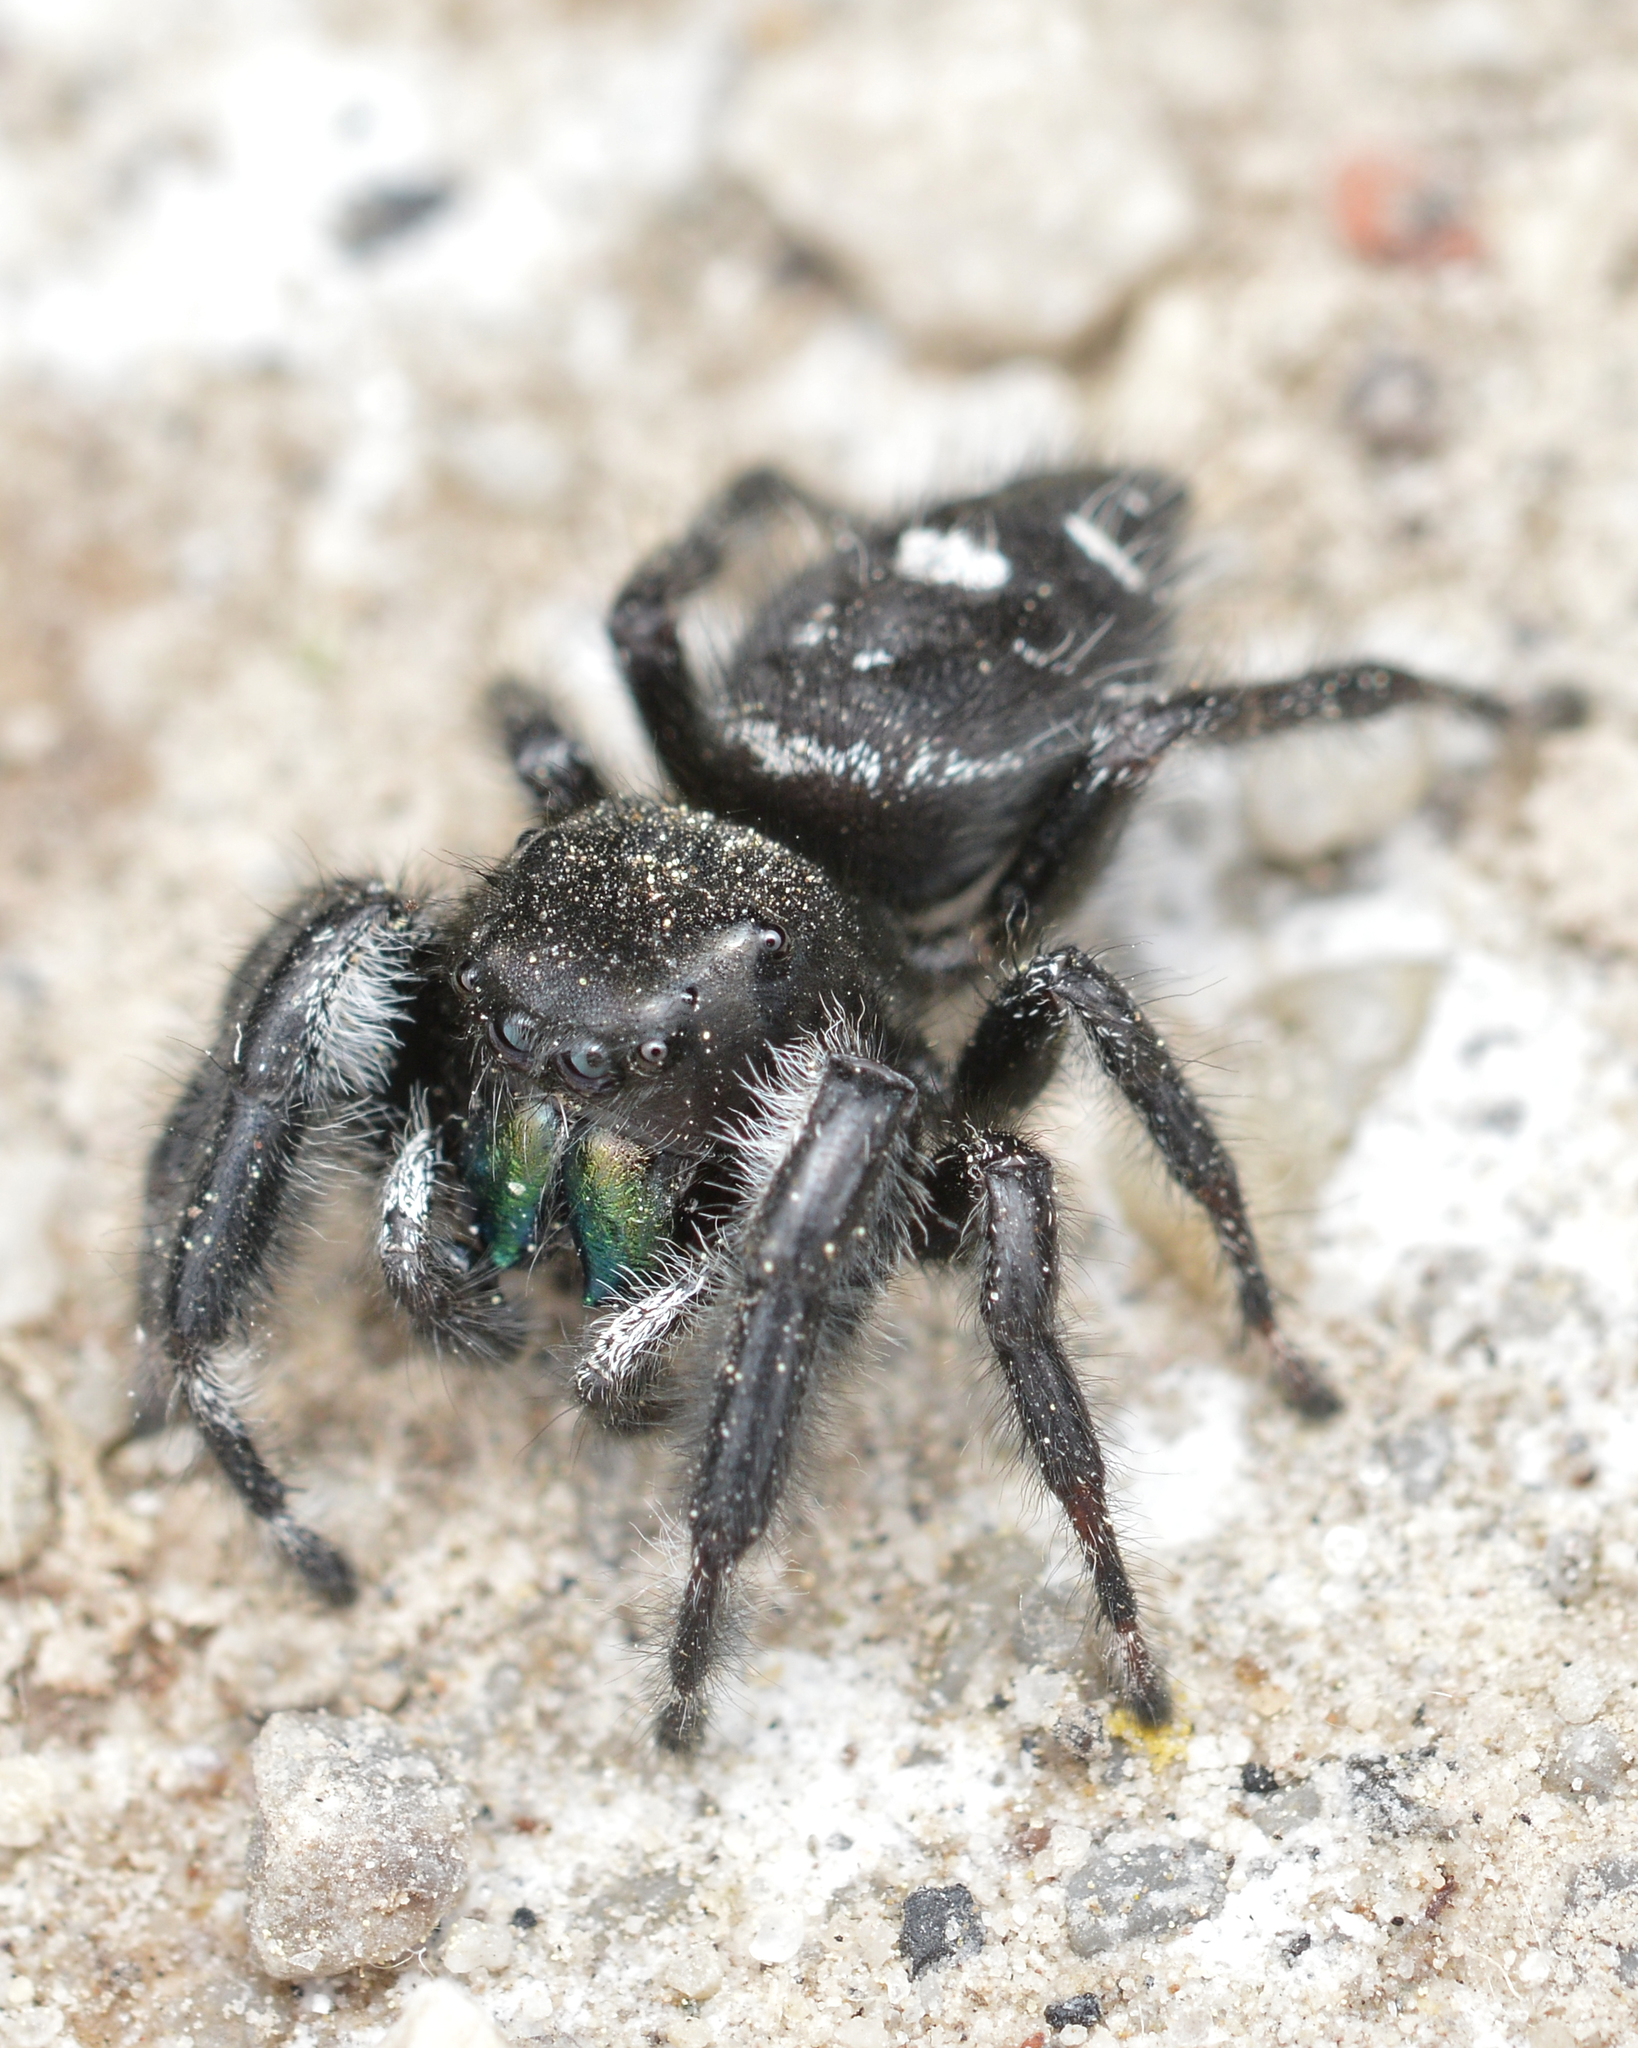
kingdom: Animalia
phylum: Arthropoda
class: Arachnida
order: Araneae
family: Salticidae
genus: Phidippus
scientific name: Phidippus audax
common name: Bold jumper
